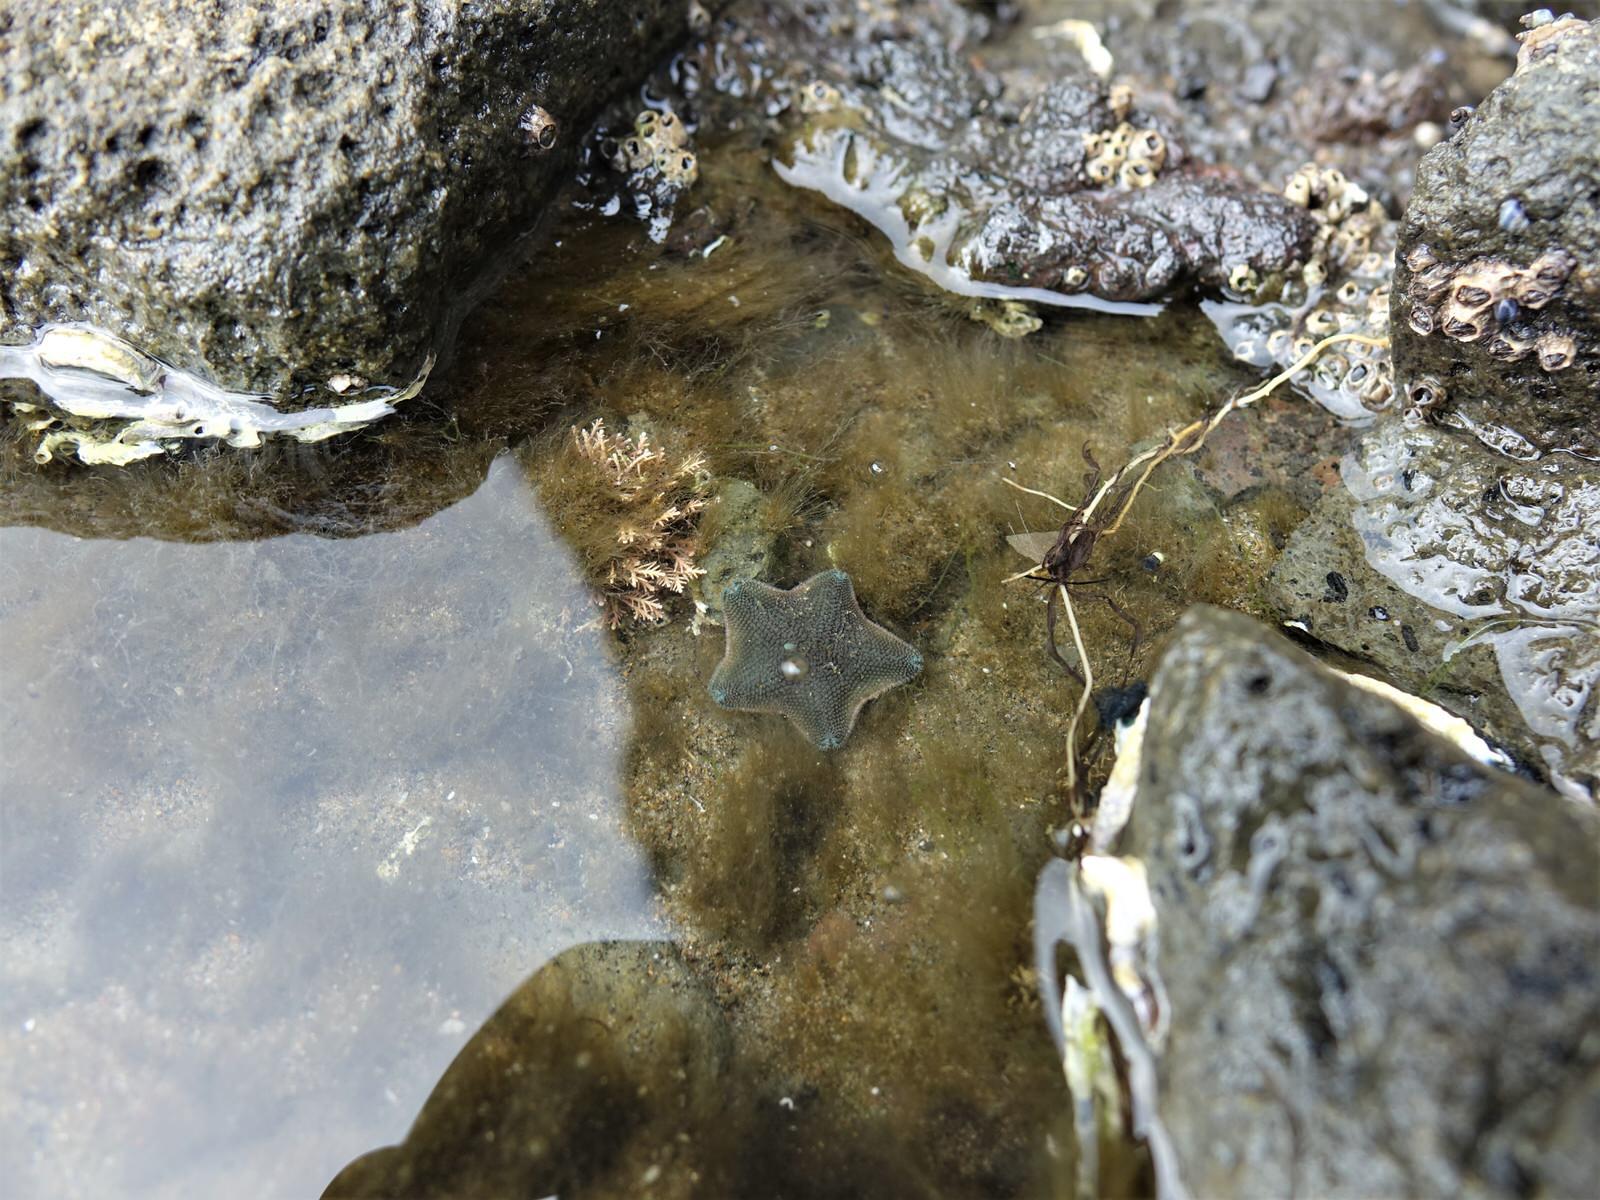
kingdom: Animalia
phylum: Echinodermata
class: Asteroidea
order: Valvatida
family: Asterinidae
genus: Patiriella
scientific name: Patiriella regularis
